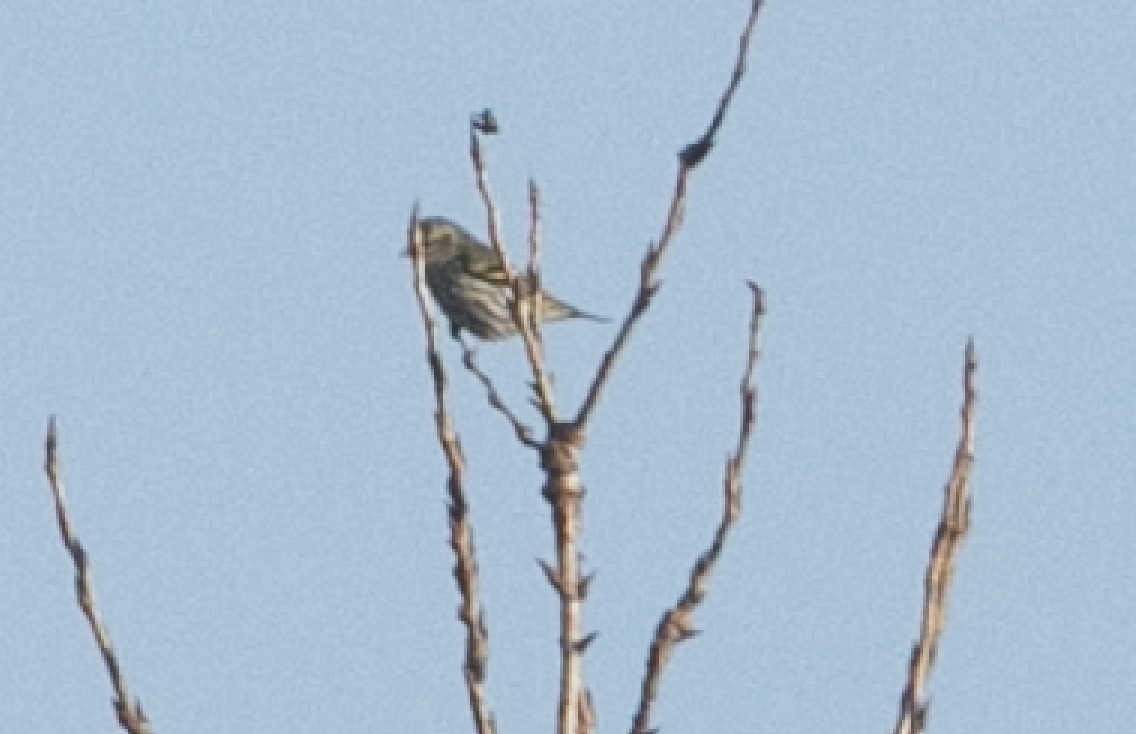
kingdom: Animalia
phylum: Chordata
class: Aves
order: Passeriformes
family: Fringillidae
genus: Spinus
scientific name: Spinus spinus
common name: Eurasian siskin
